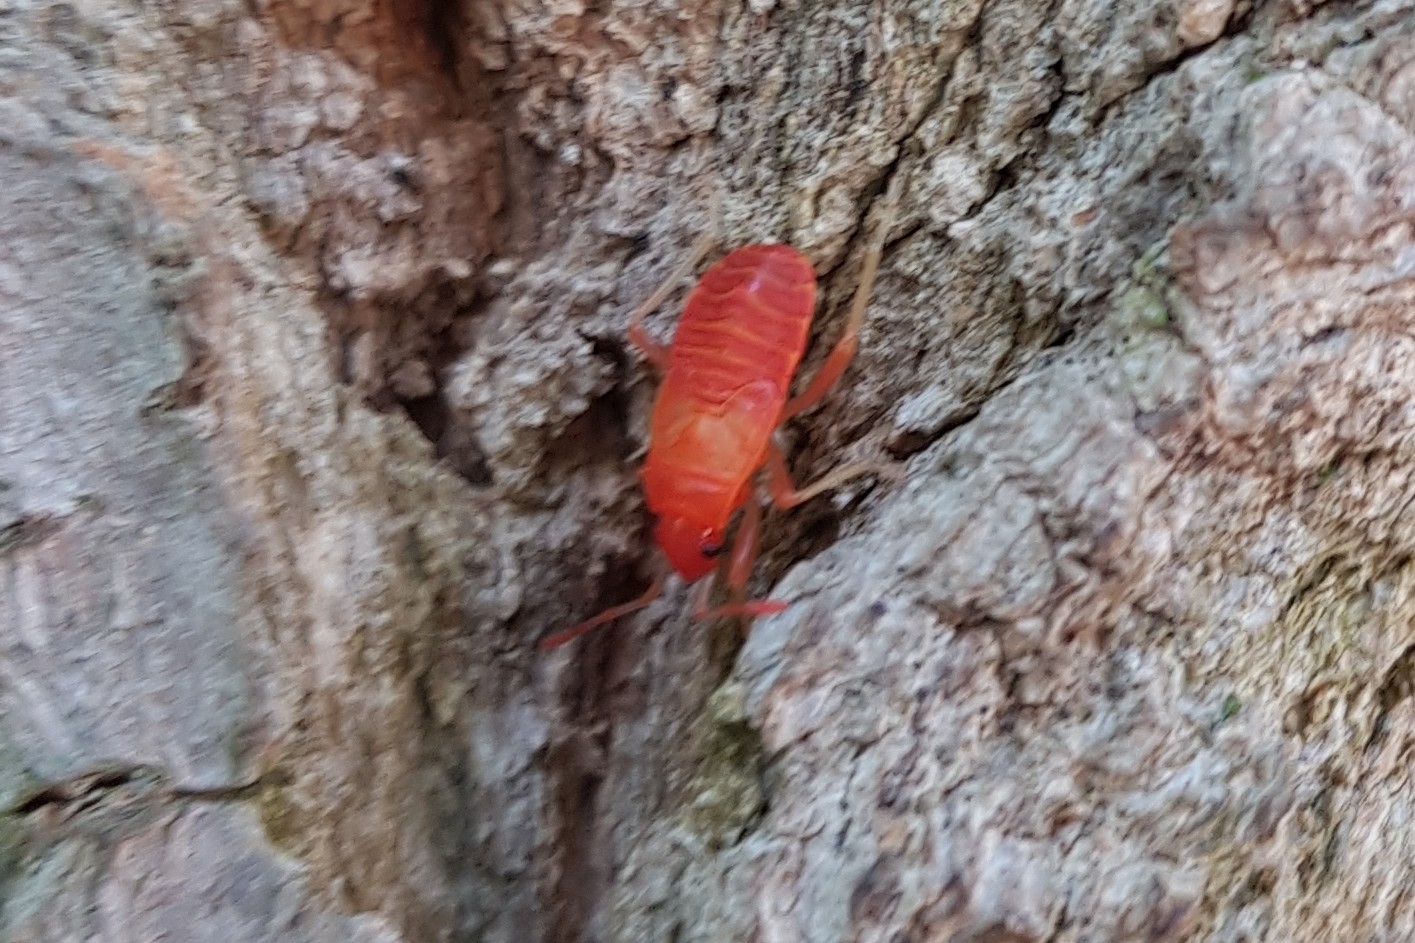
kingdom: Animalia
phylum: Arthropoda
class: Insecta
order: Hemiptera
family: Pyrrhocoridae
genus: Pyrrhocoris
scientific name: Pyrrhocoris apterus
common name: Firebug
